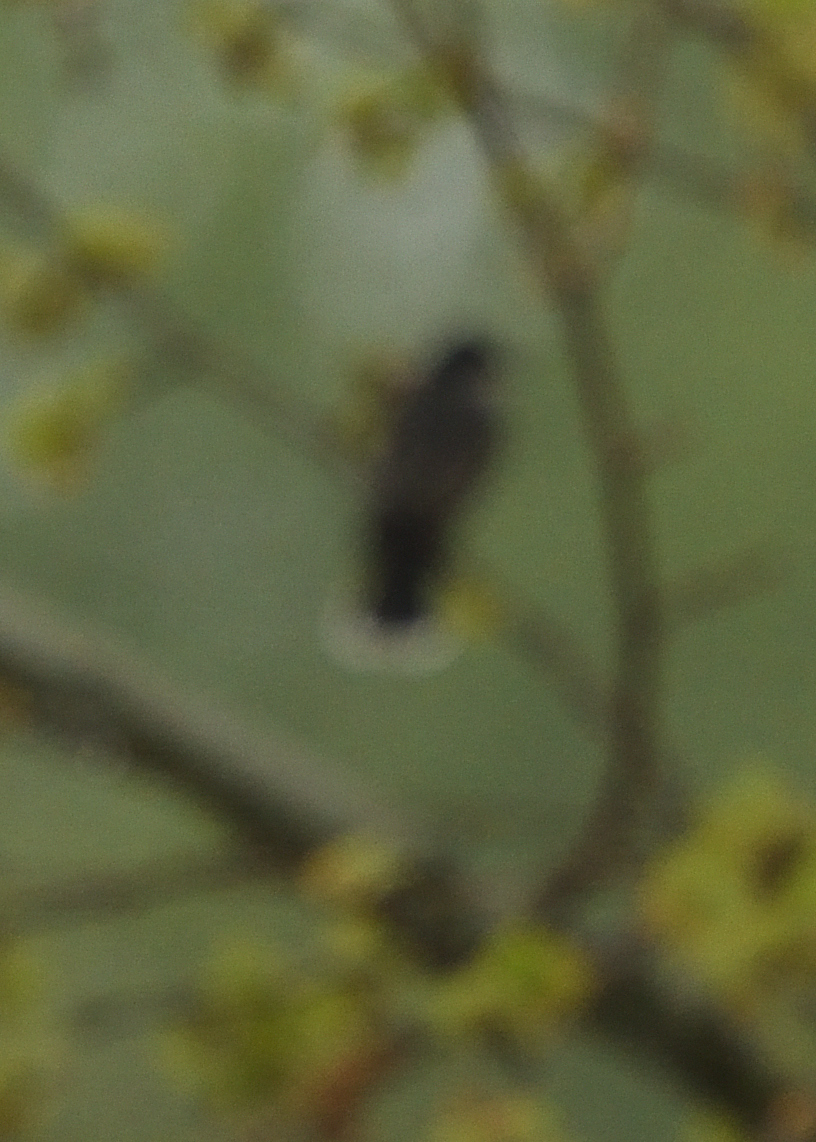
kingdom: Animalia
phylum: Chordata
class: Aves
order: Passeriformes
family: Tyrannidae
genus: Tyrannus
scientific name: Tyrannus tyrannus
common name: Eastern kingbird
